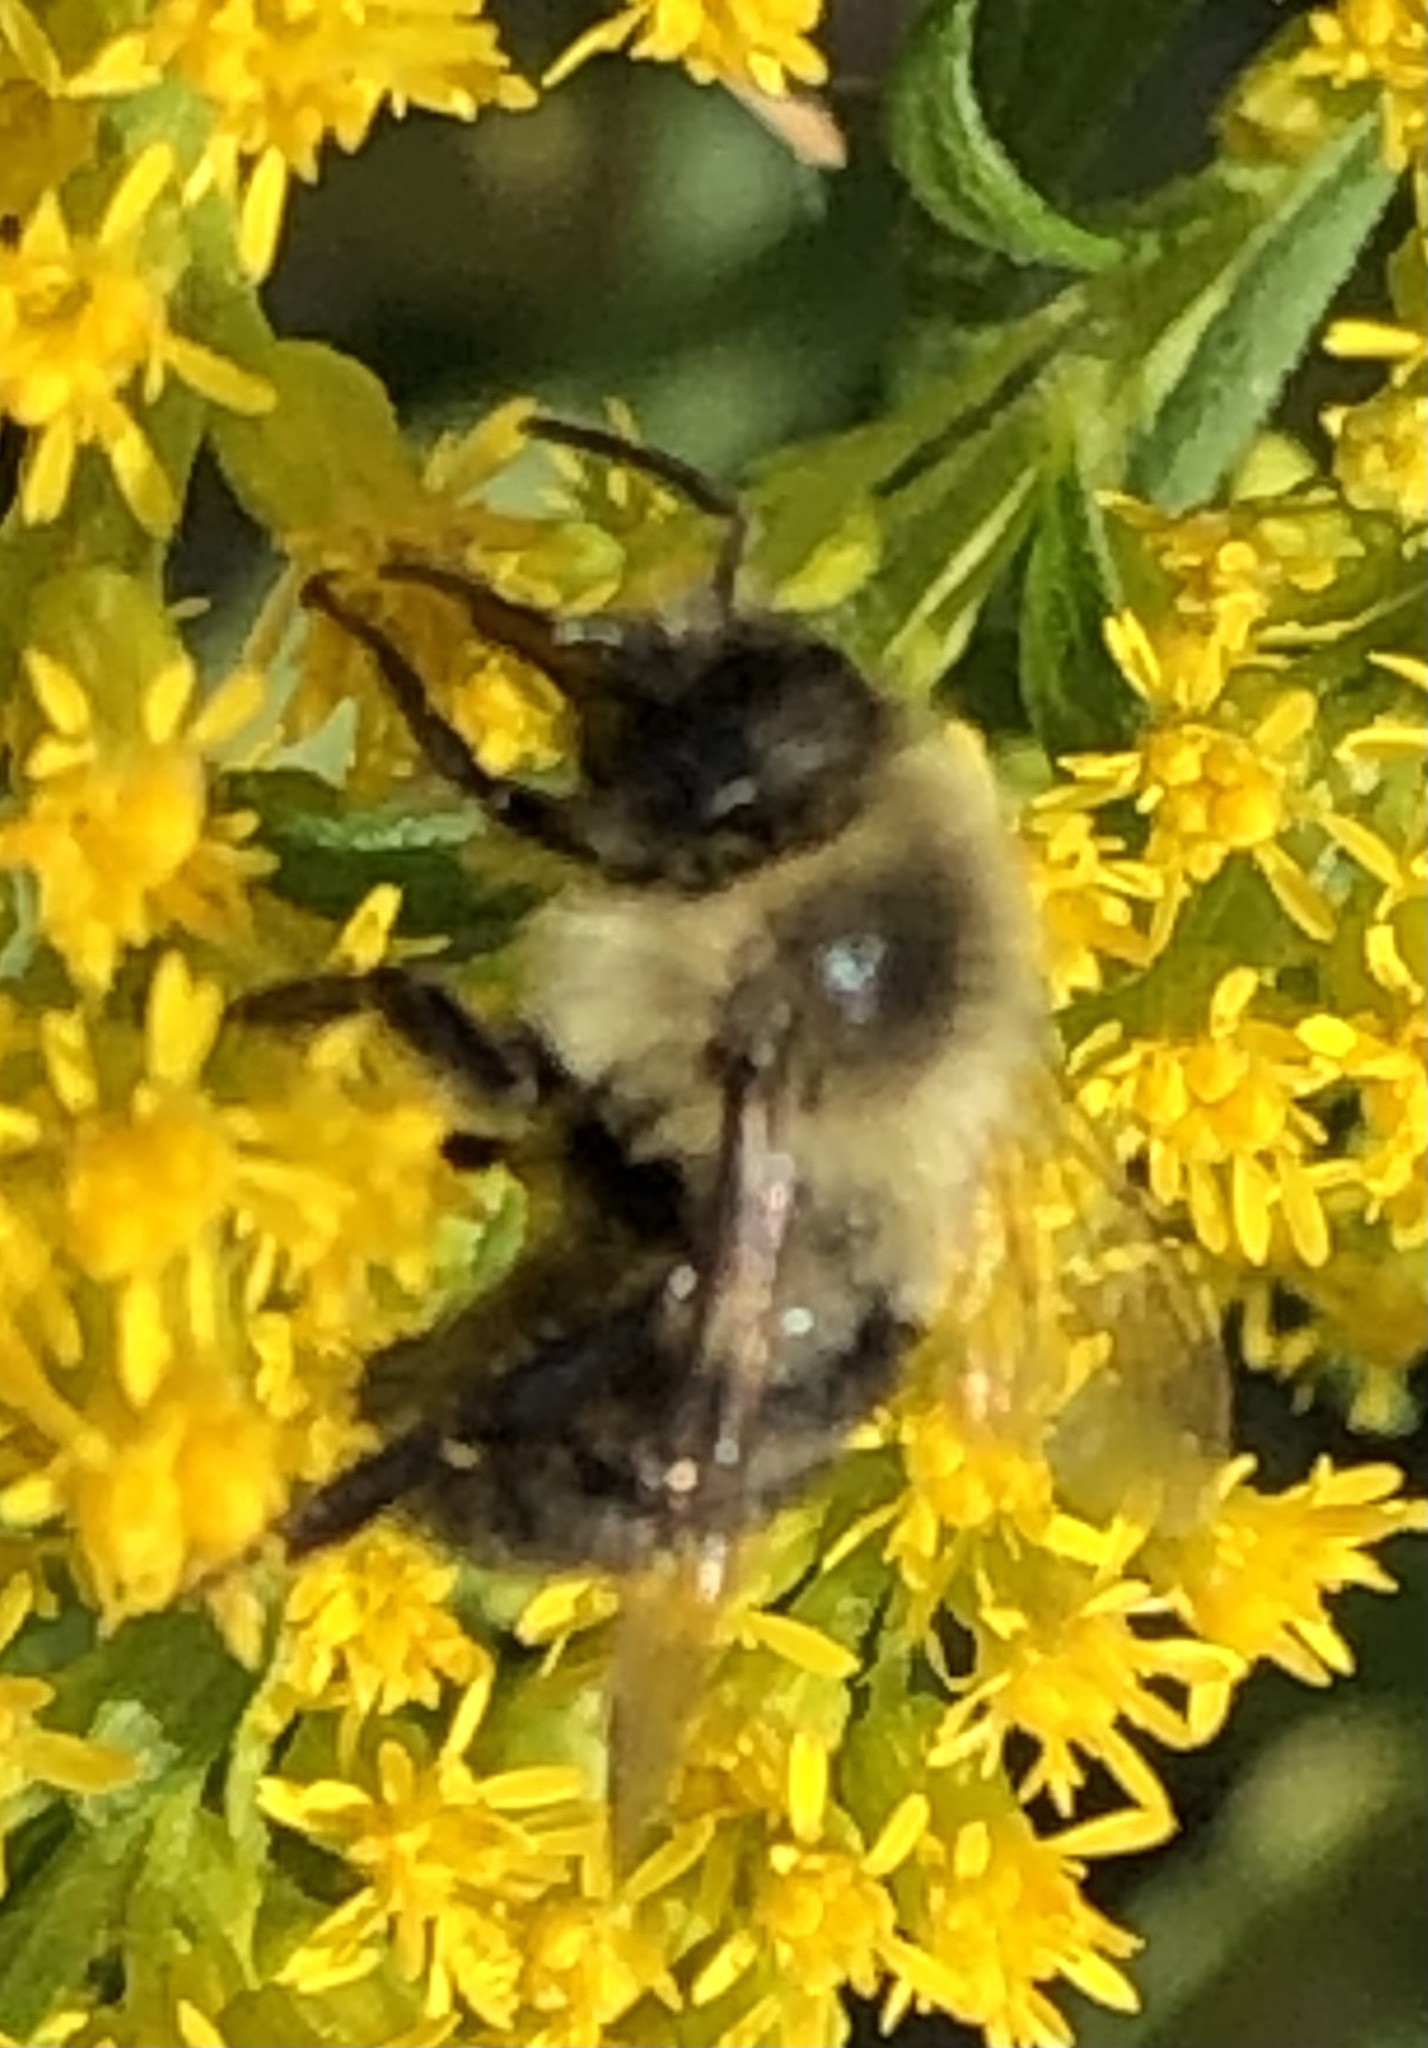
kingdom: Animalia
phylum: Arthropoda
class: Insecta
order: Hymenoptera
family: Apidae
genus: Bombus
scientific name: Bombus impatiens
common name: Common eastern bumble bee
